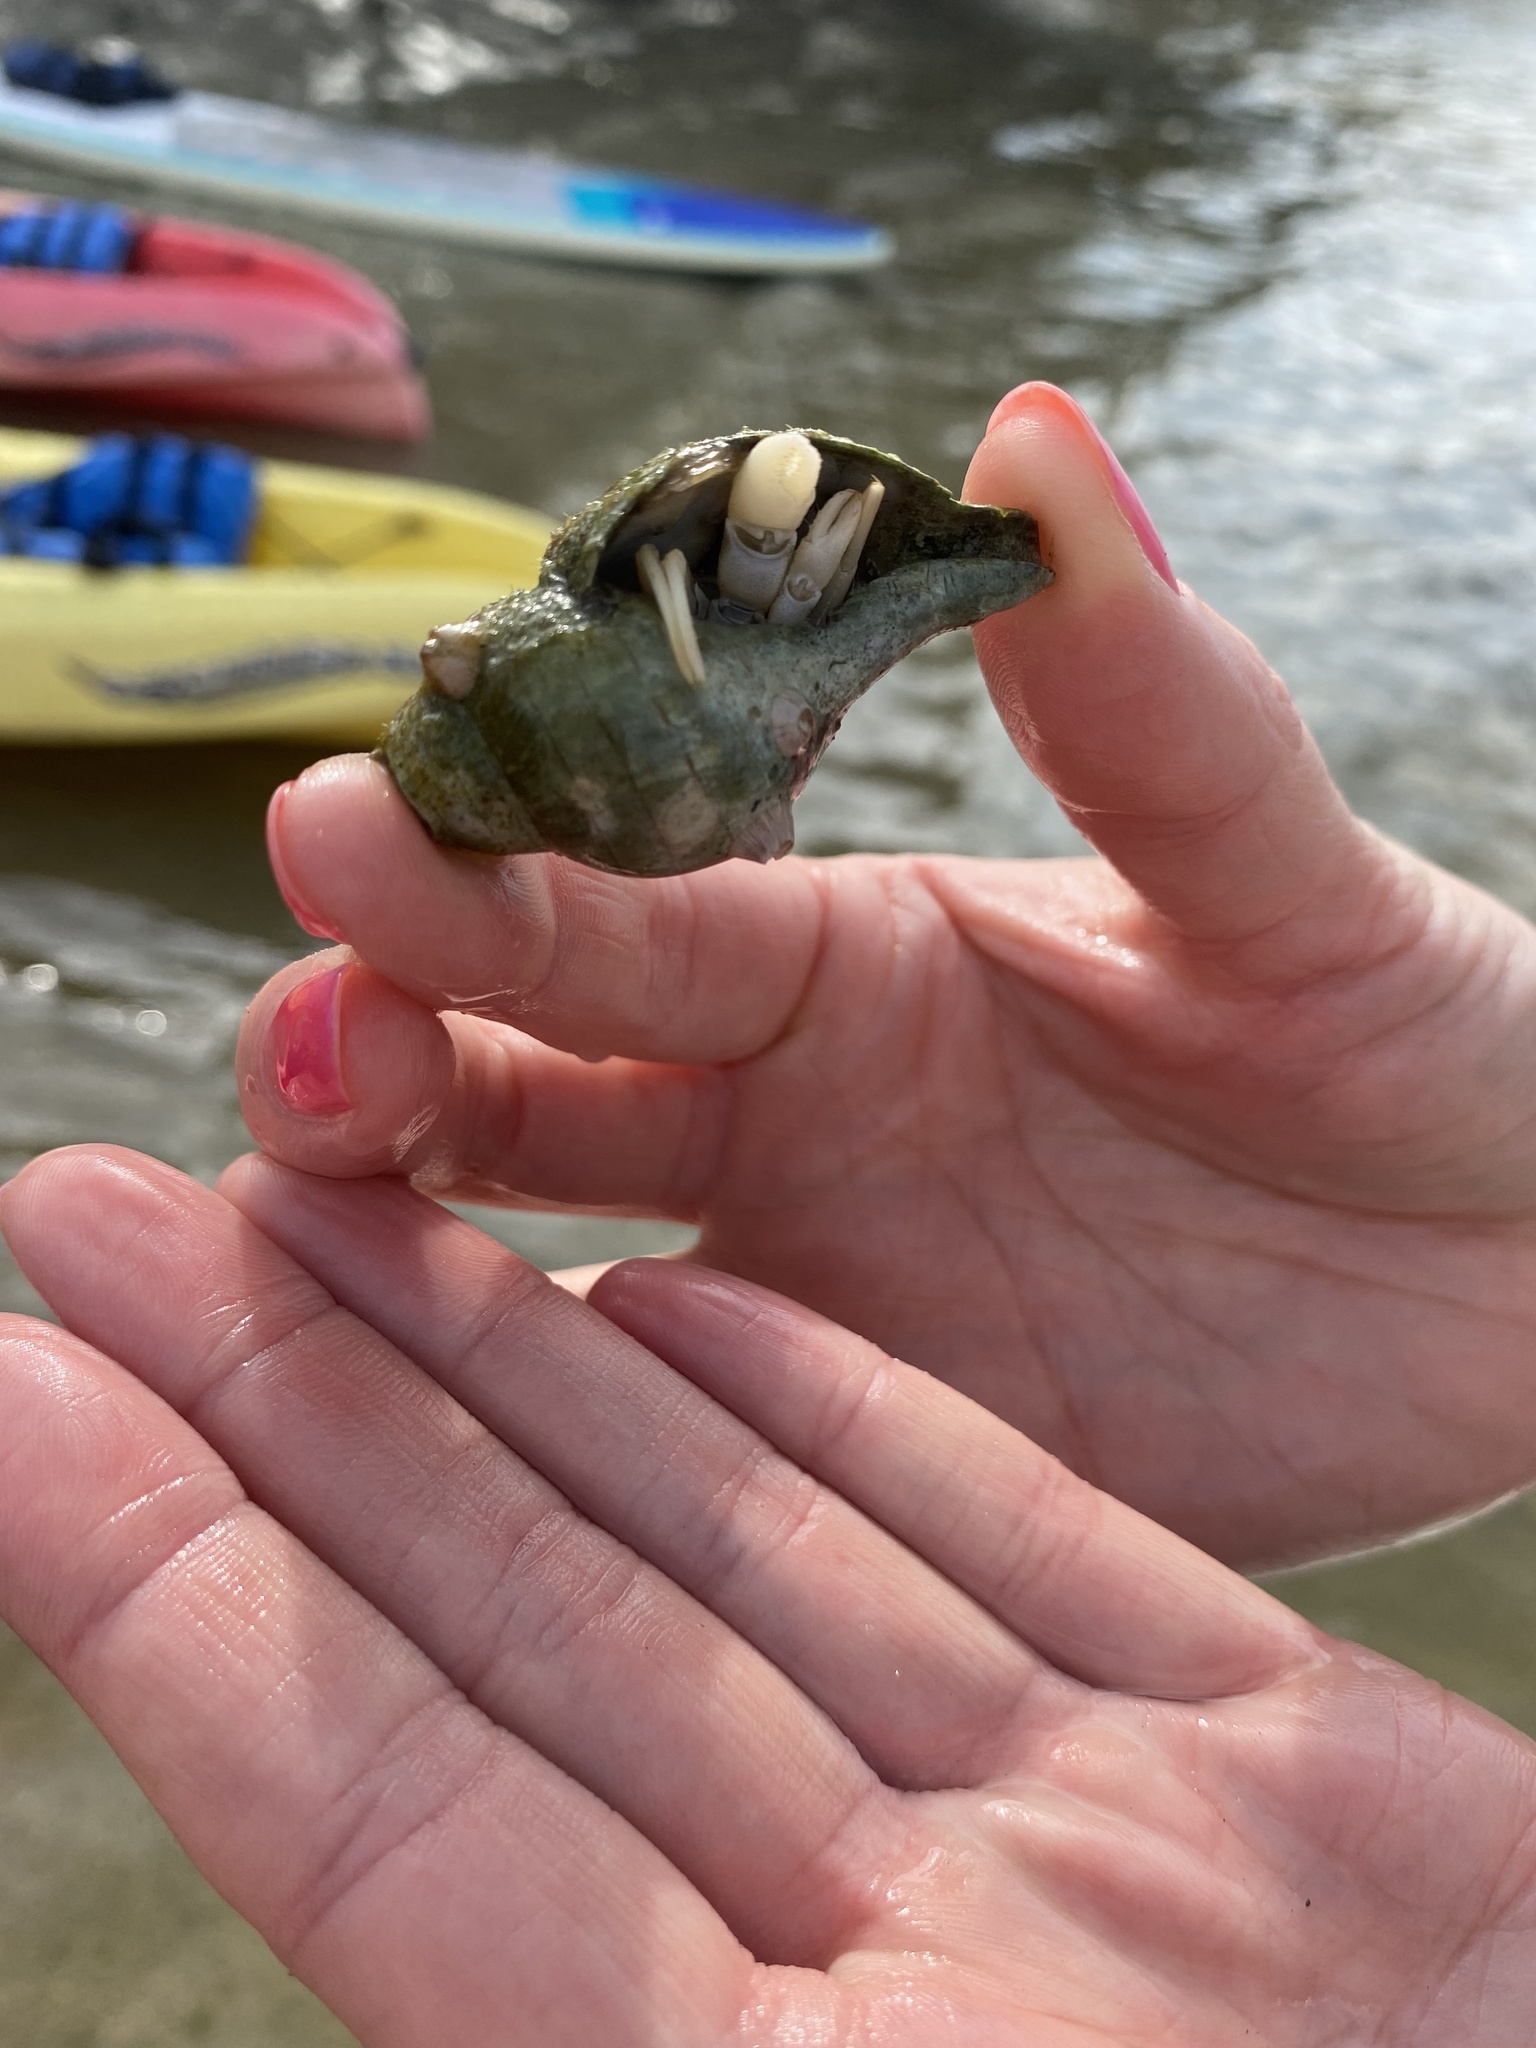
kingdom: Animalia
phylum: Arthropoda
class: Malacostraca
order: Decapoda
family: Paguridae
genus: Pagurus
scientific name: Pagurus longicarpus
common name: Long-armed hermit crab
